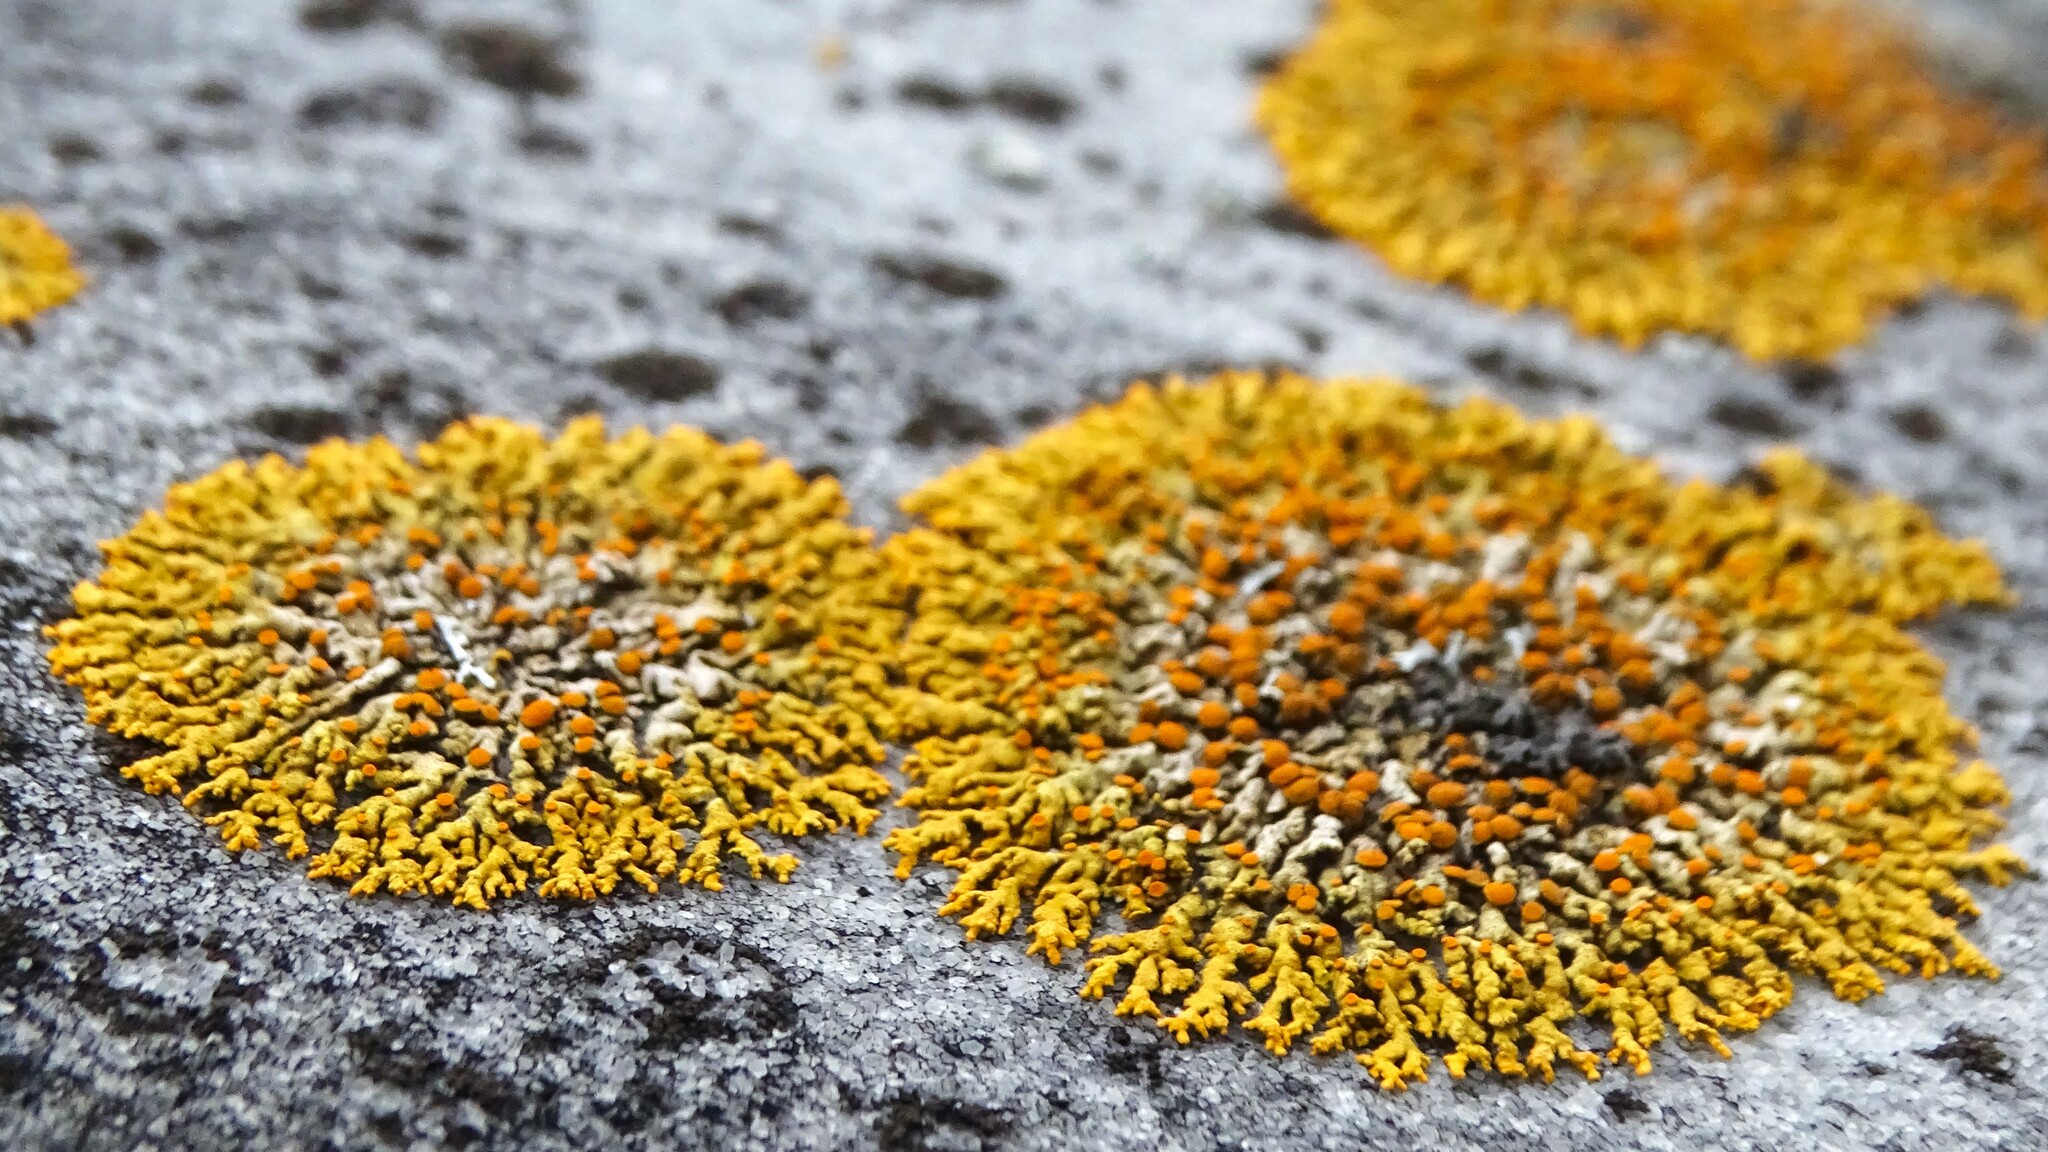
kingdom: Fungi
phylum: Ascomycota
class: Lecanoromycetes
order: Teloschistales
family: Teloschistaceae
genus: Xanthoria
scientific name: Xanthoria elegans
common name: Elegant sunburst lichen
